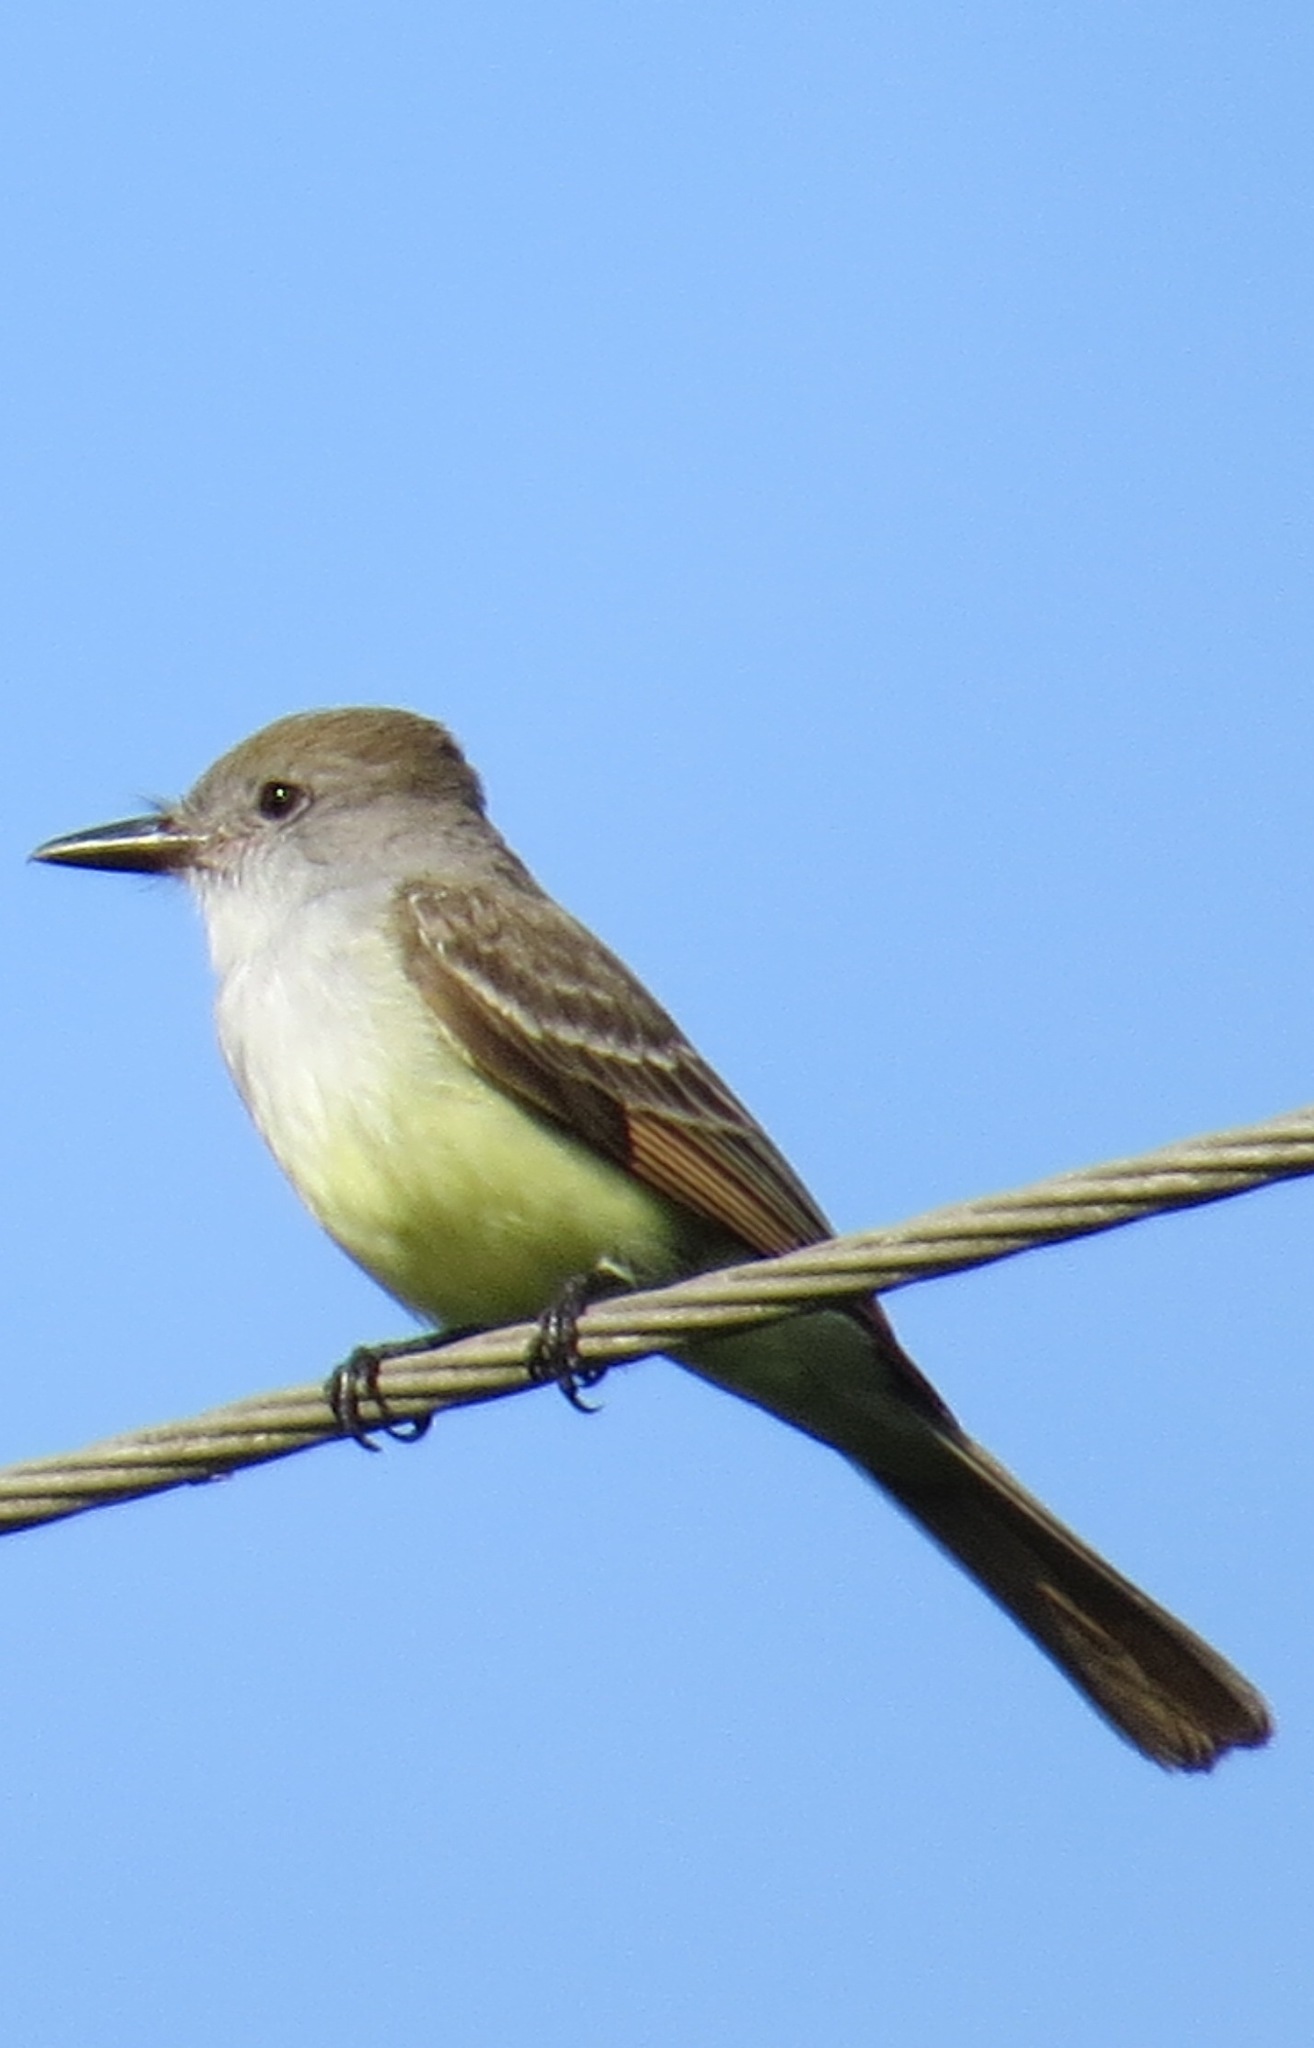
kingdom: Animalia
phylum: Chordata
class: Aves
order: Passeriformes
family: Tyrannidae
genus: Myiarchus
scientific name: Myiarchus tyrannulus
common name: Brown-crested flycatcher
